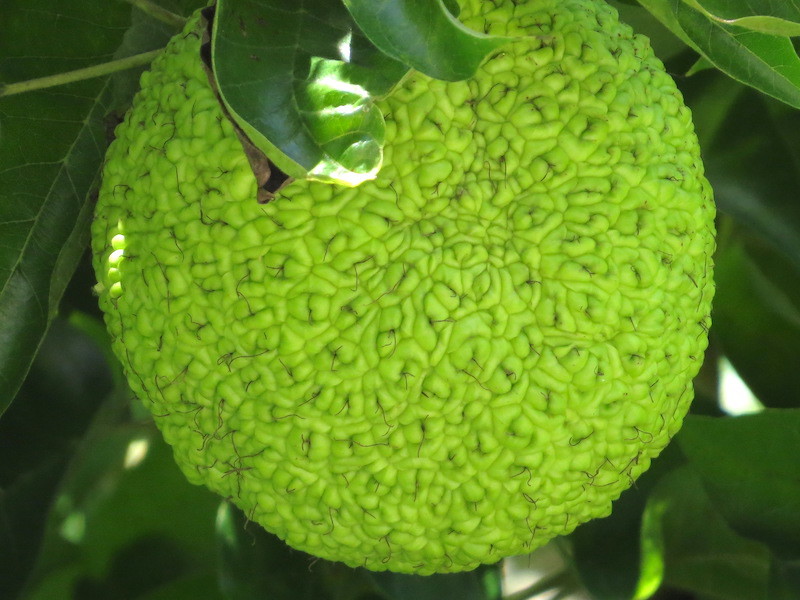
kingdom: Plantae
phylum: Tracheophyta
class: Magnoliopsida
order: Rosales
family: Moraceae
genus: Maclura
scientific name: Maclura pomifera
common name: Osage-orange
